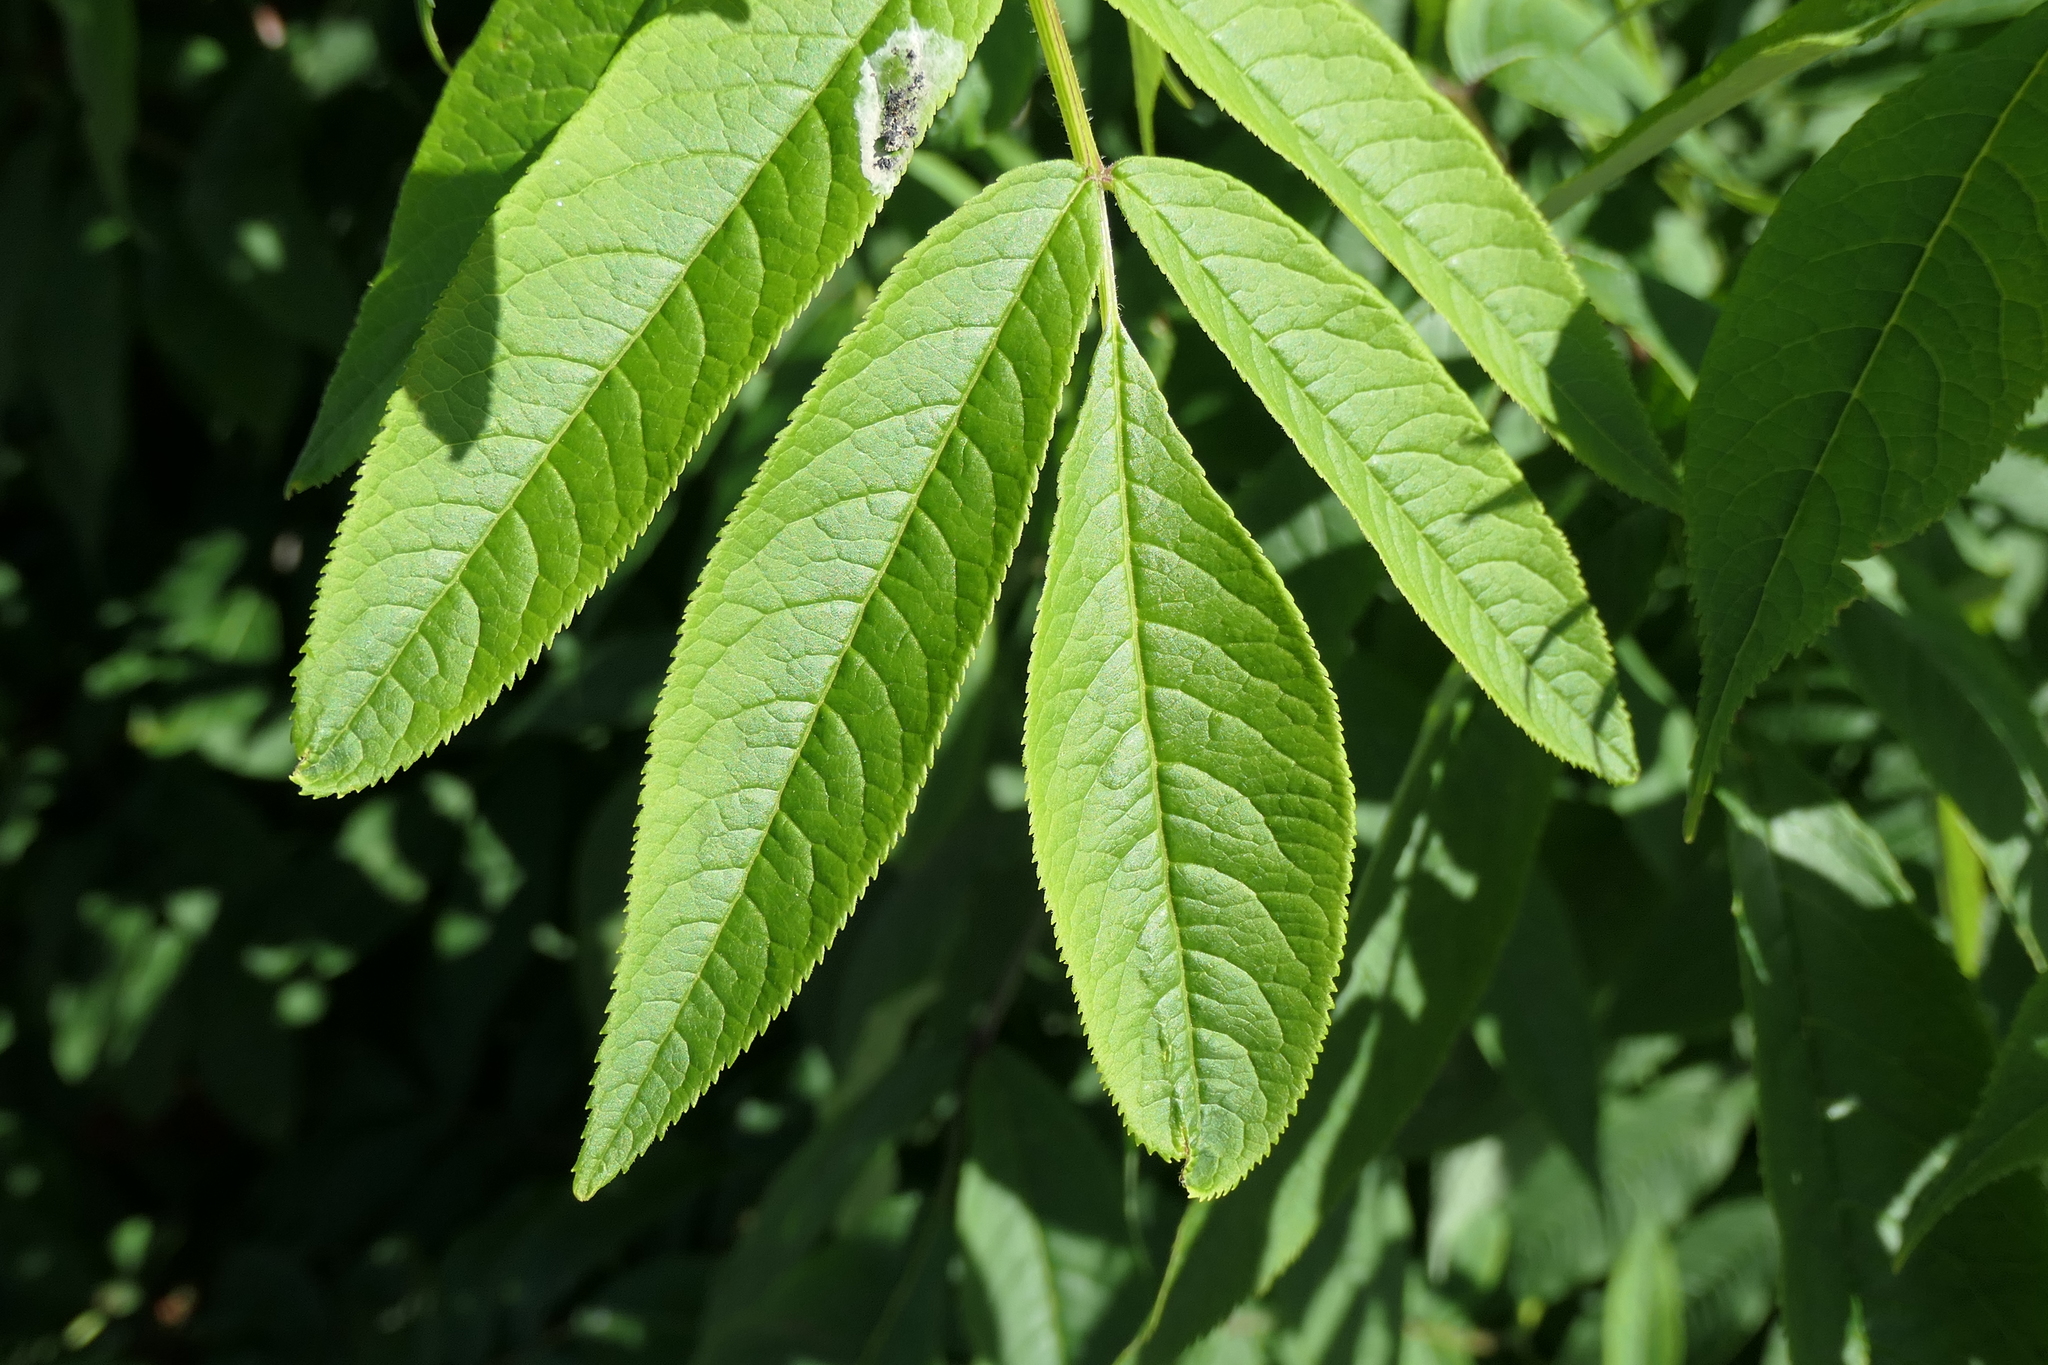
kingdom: Plantae
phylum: Tracheophyta
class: Magnoliopsida
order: Dipsacales
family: Viburnaceae
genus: Sambucus
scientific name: Sambucus racemosa
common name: Red-berried elder
